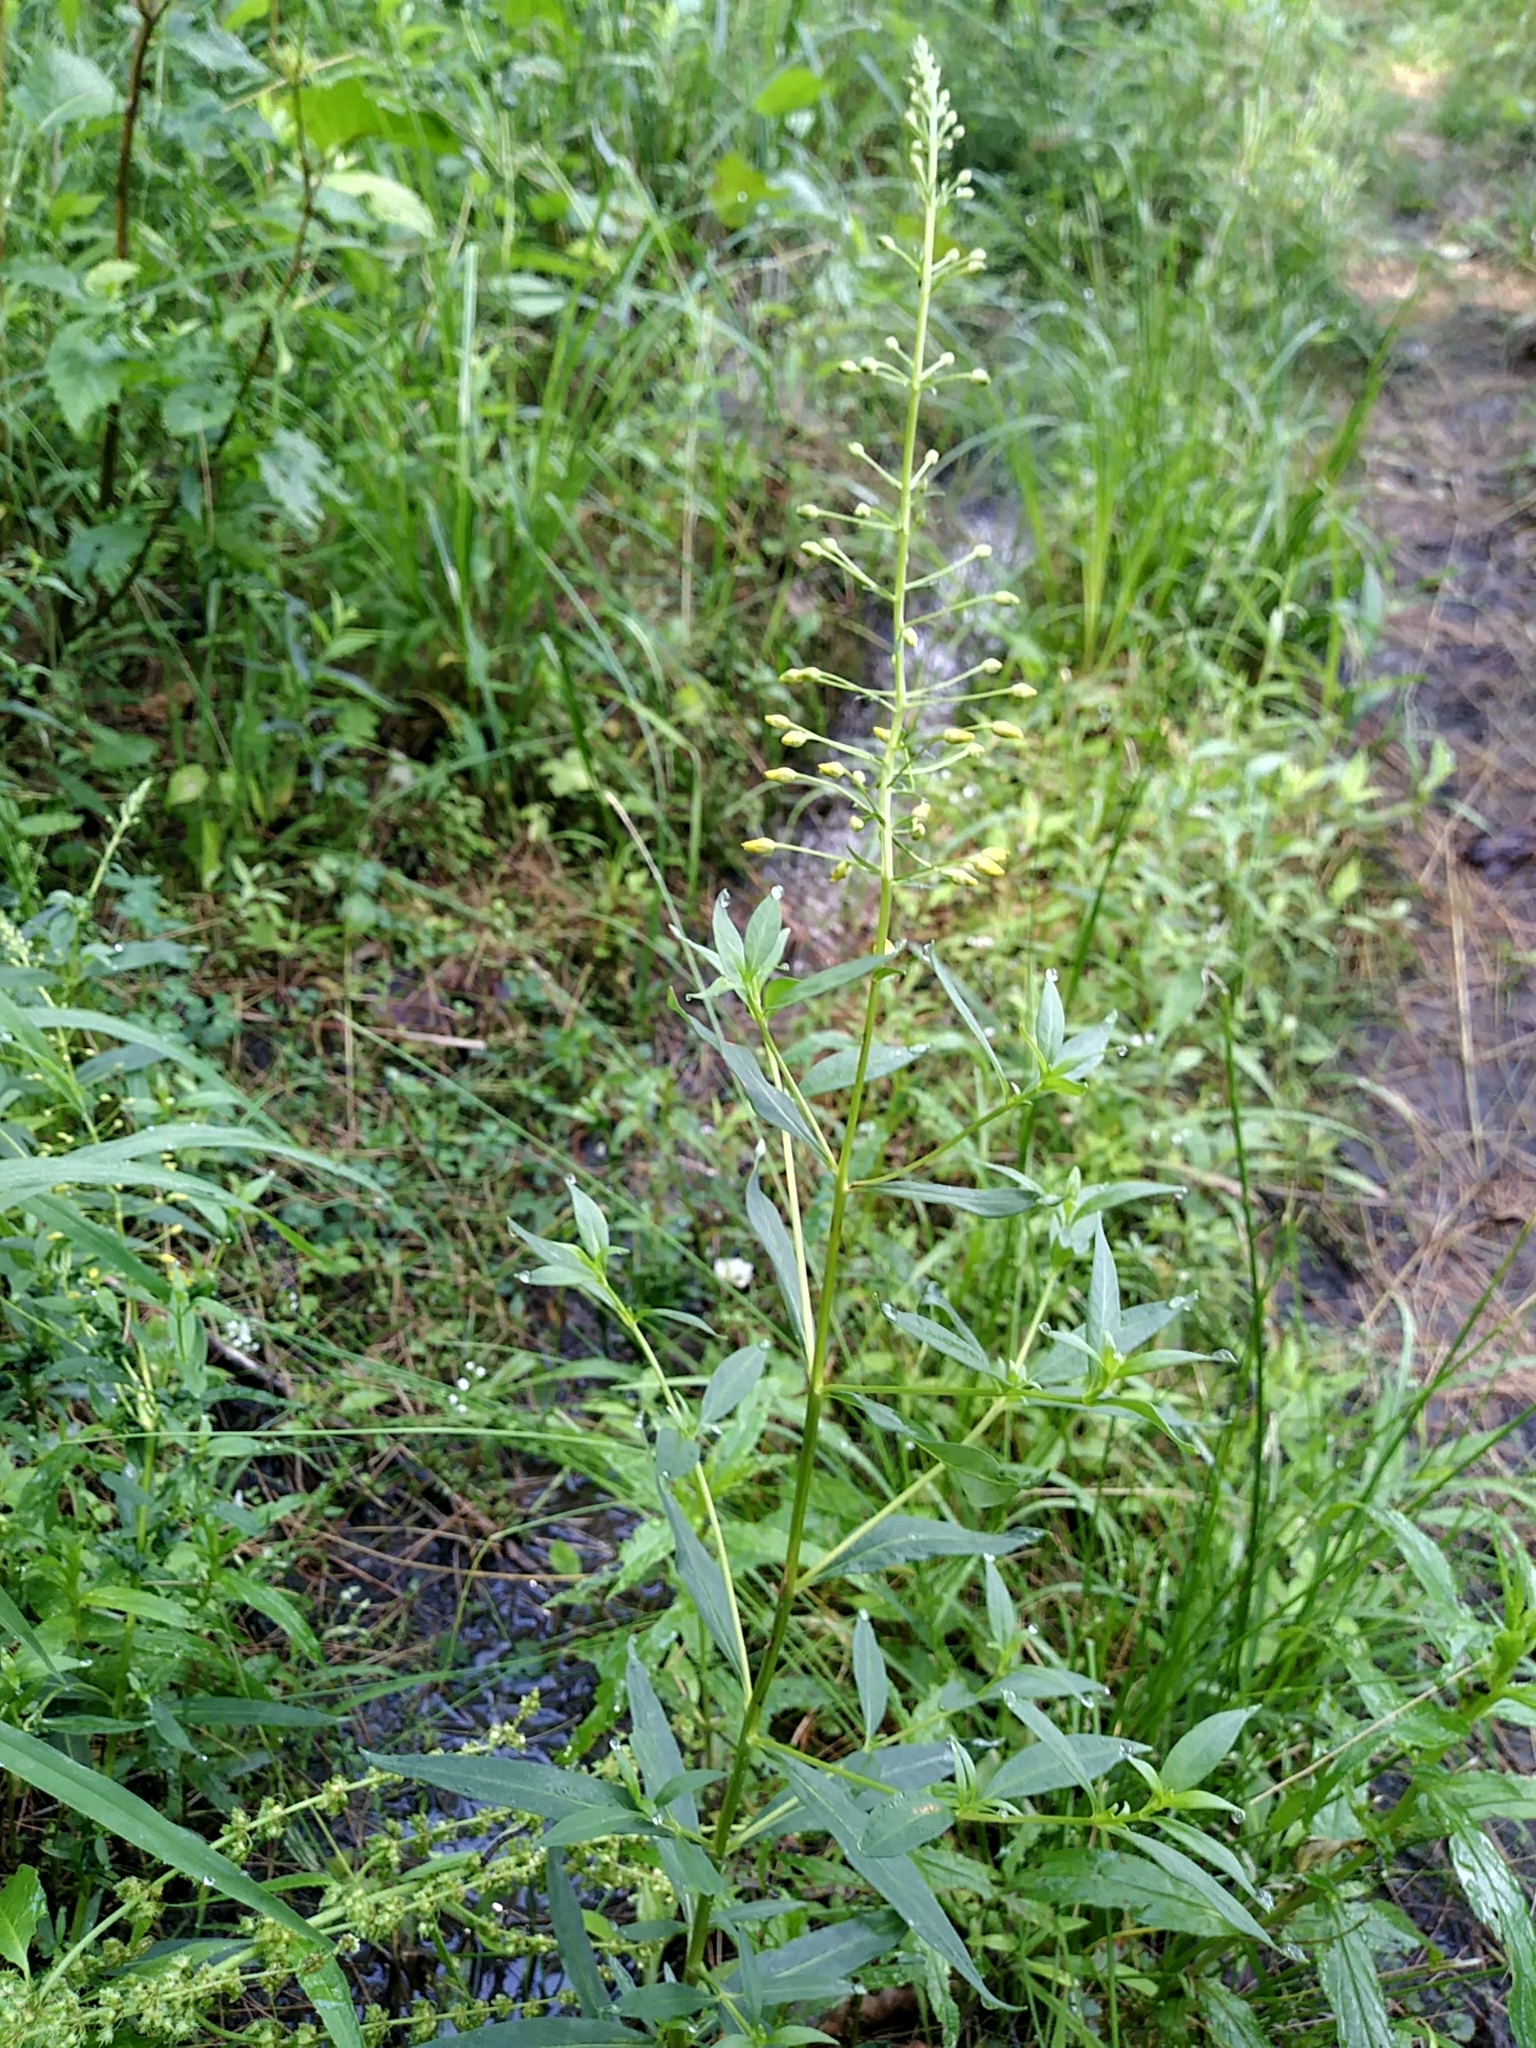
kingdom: Plantae
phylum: Tracheophyta
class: Magnoliopsida
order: Ericales
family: Primulaceae
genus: Lysimachia
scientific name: Lysimachia terrestris
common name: Lake loosestrife
